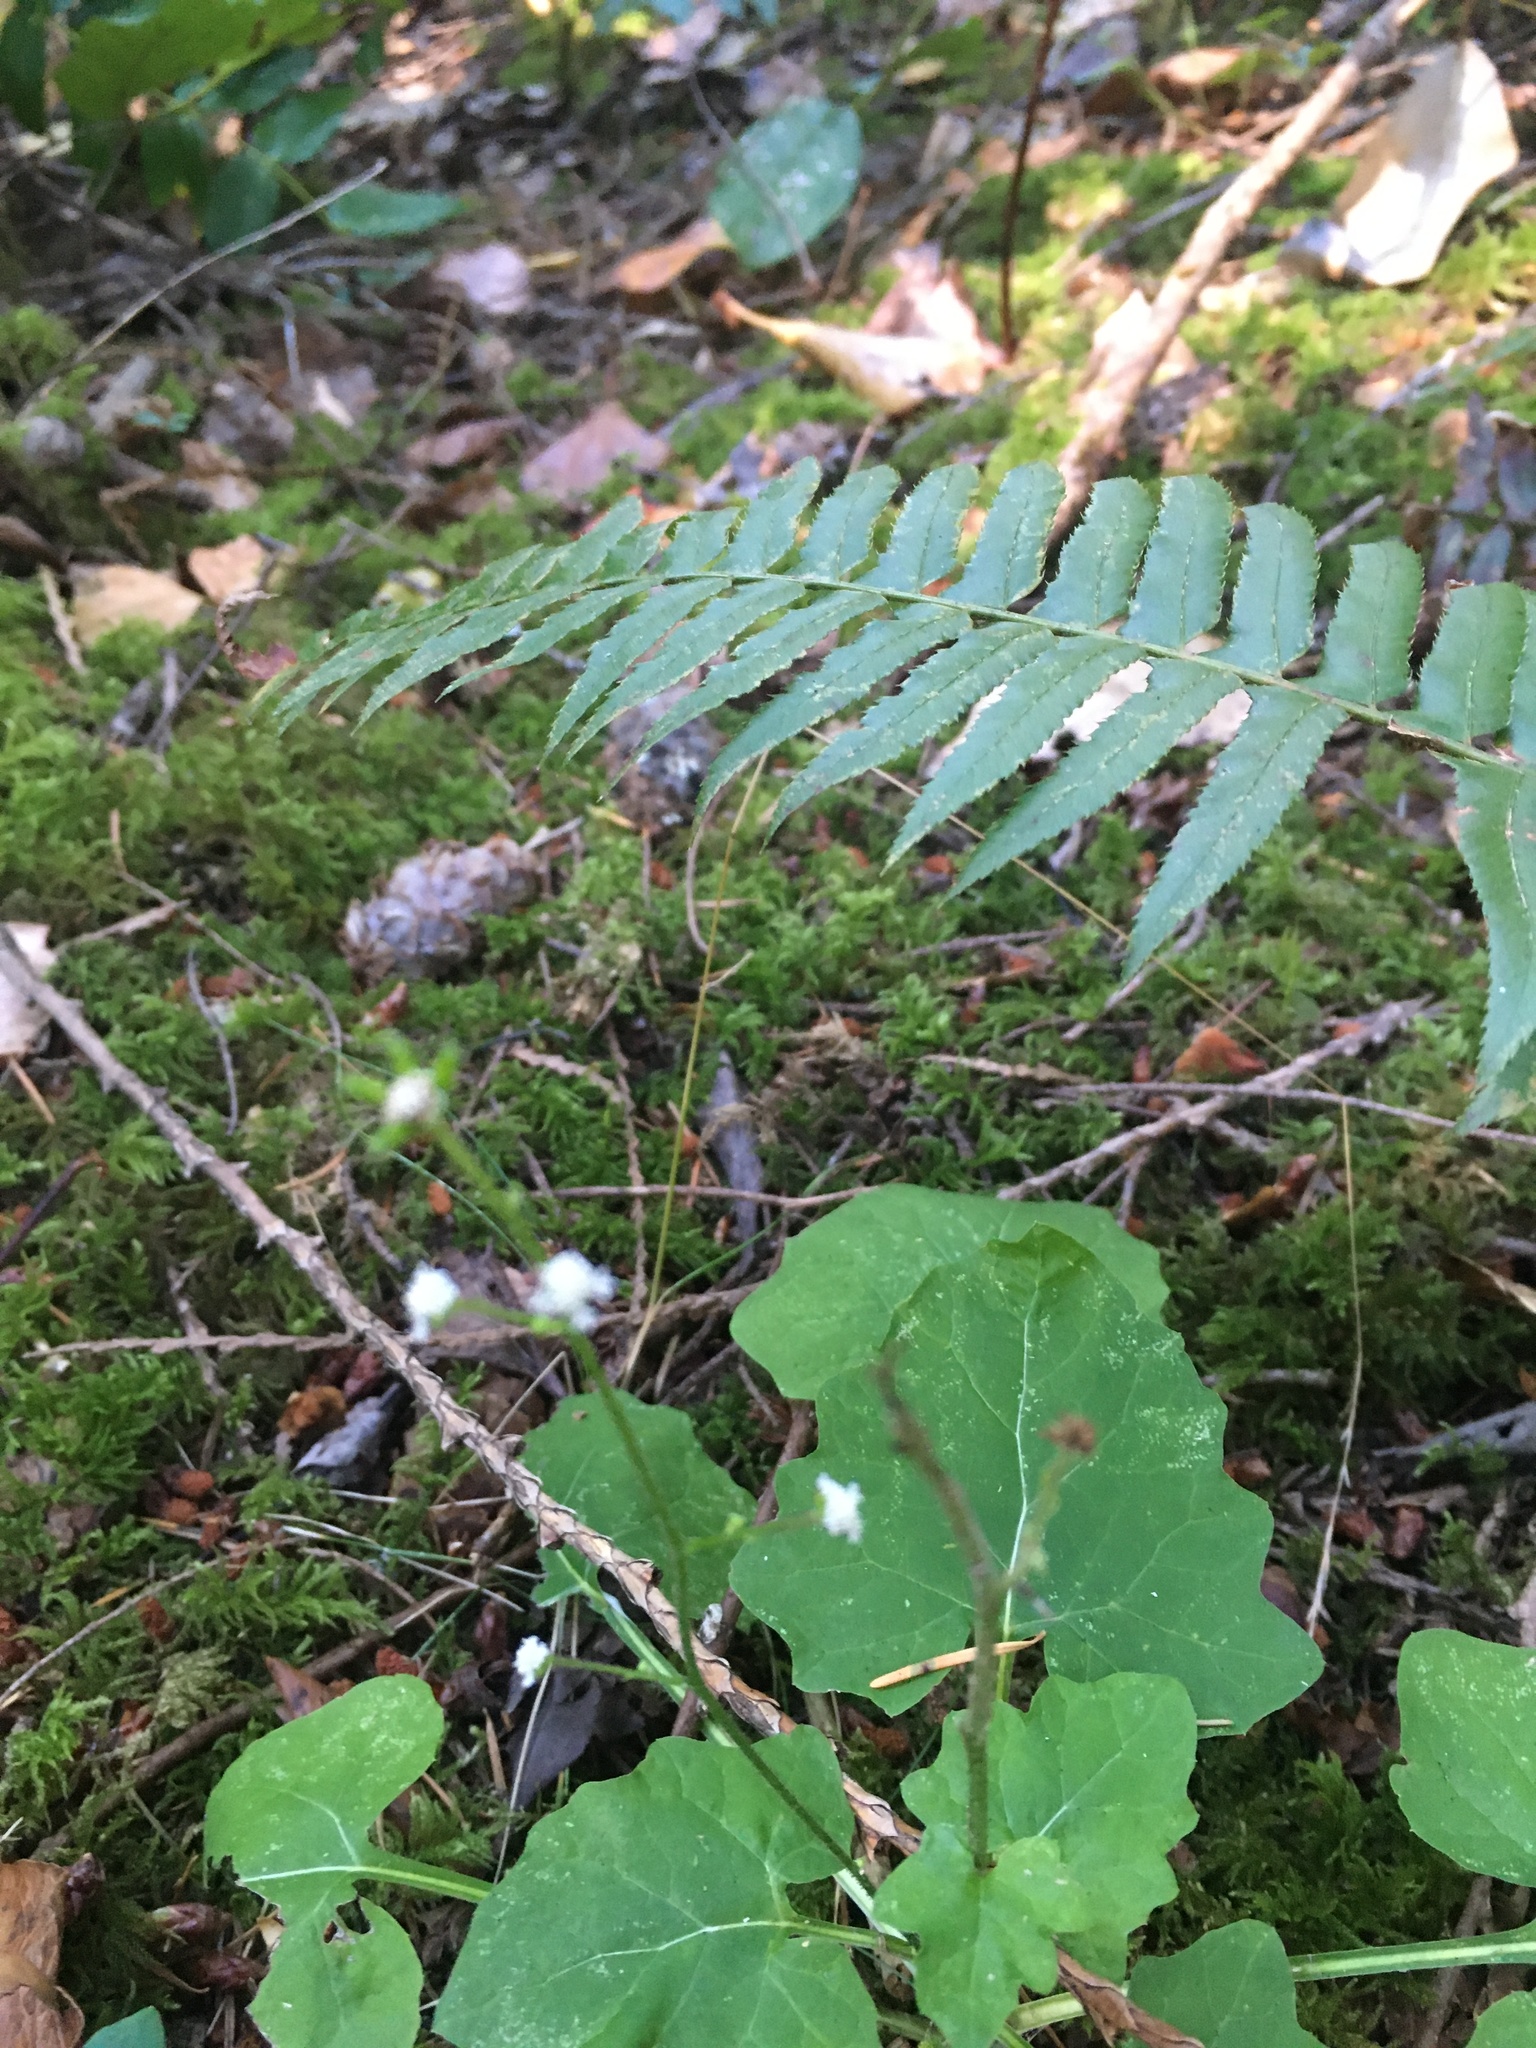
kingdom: Plantae
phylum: Tracheophyta
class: Magnoliopsida
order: Asterales
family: Asteraceae
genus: Adenocaulon
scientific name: Adenocaulon bicolor
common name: Trailplant
